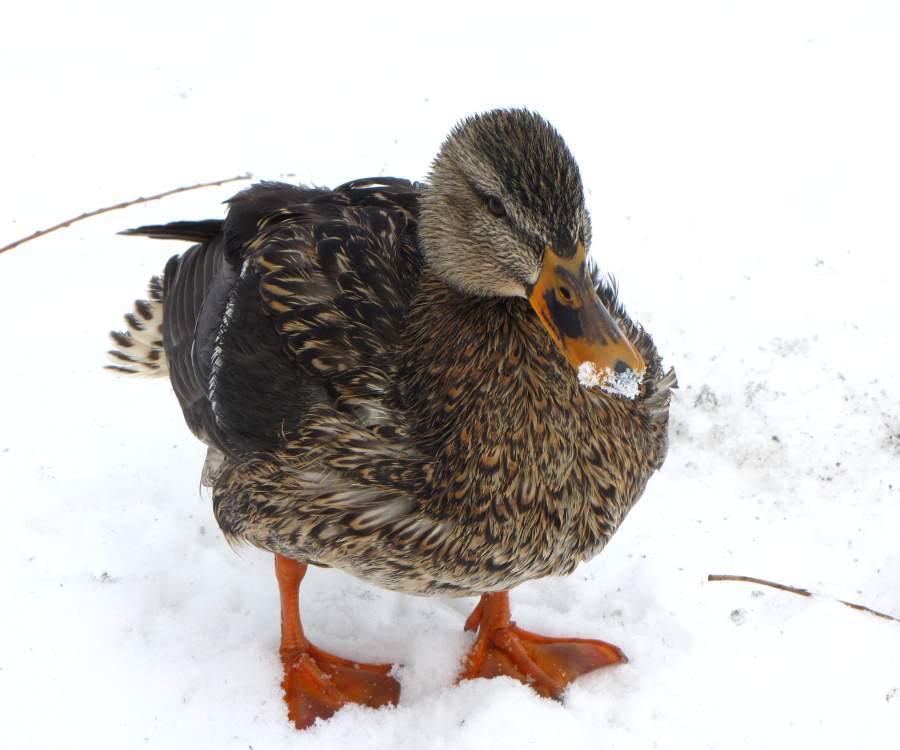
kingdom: Animalia
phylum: Chordata
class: Aves
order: Anseriformes
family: Anatidae
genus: Anas
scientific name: Anas platyrhynchos
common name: Mallard
